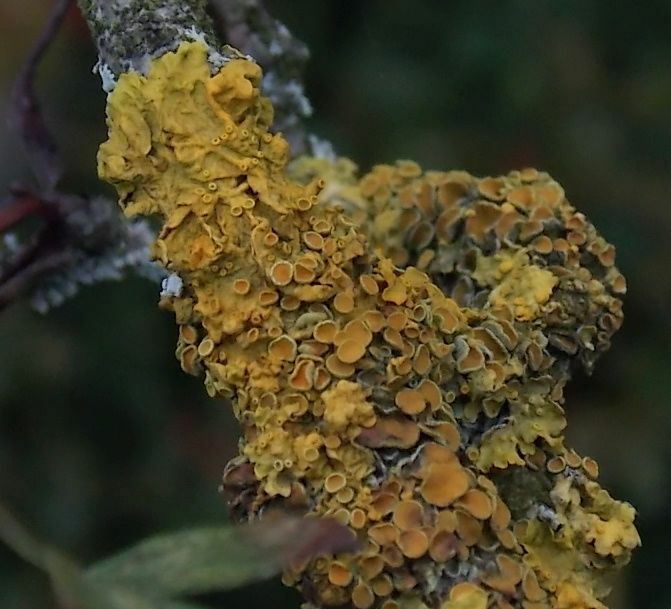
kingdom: Fungi
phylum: Ascomycota
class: Lecanoromycetes
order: Teloschistales
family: Teloschistaceae
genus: Xanthoria
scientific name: Xanthoria parietina
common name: Common orange lichen
